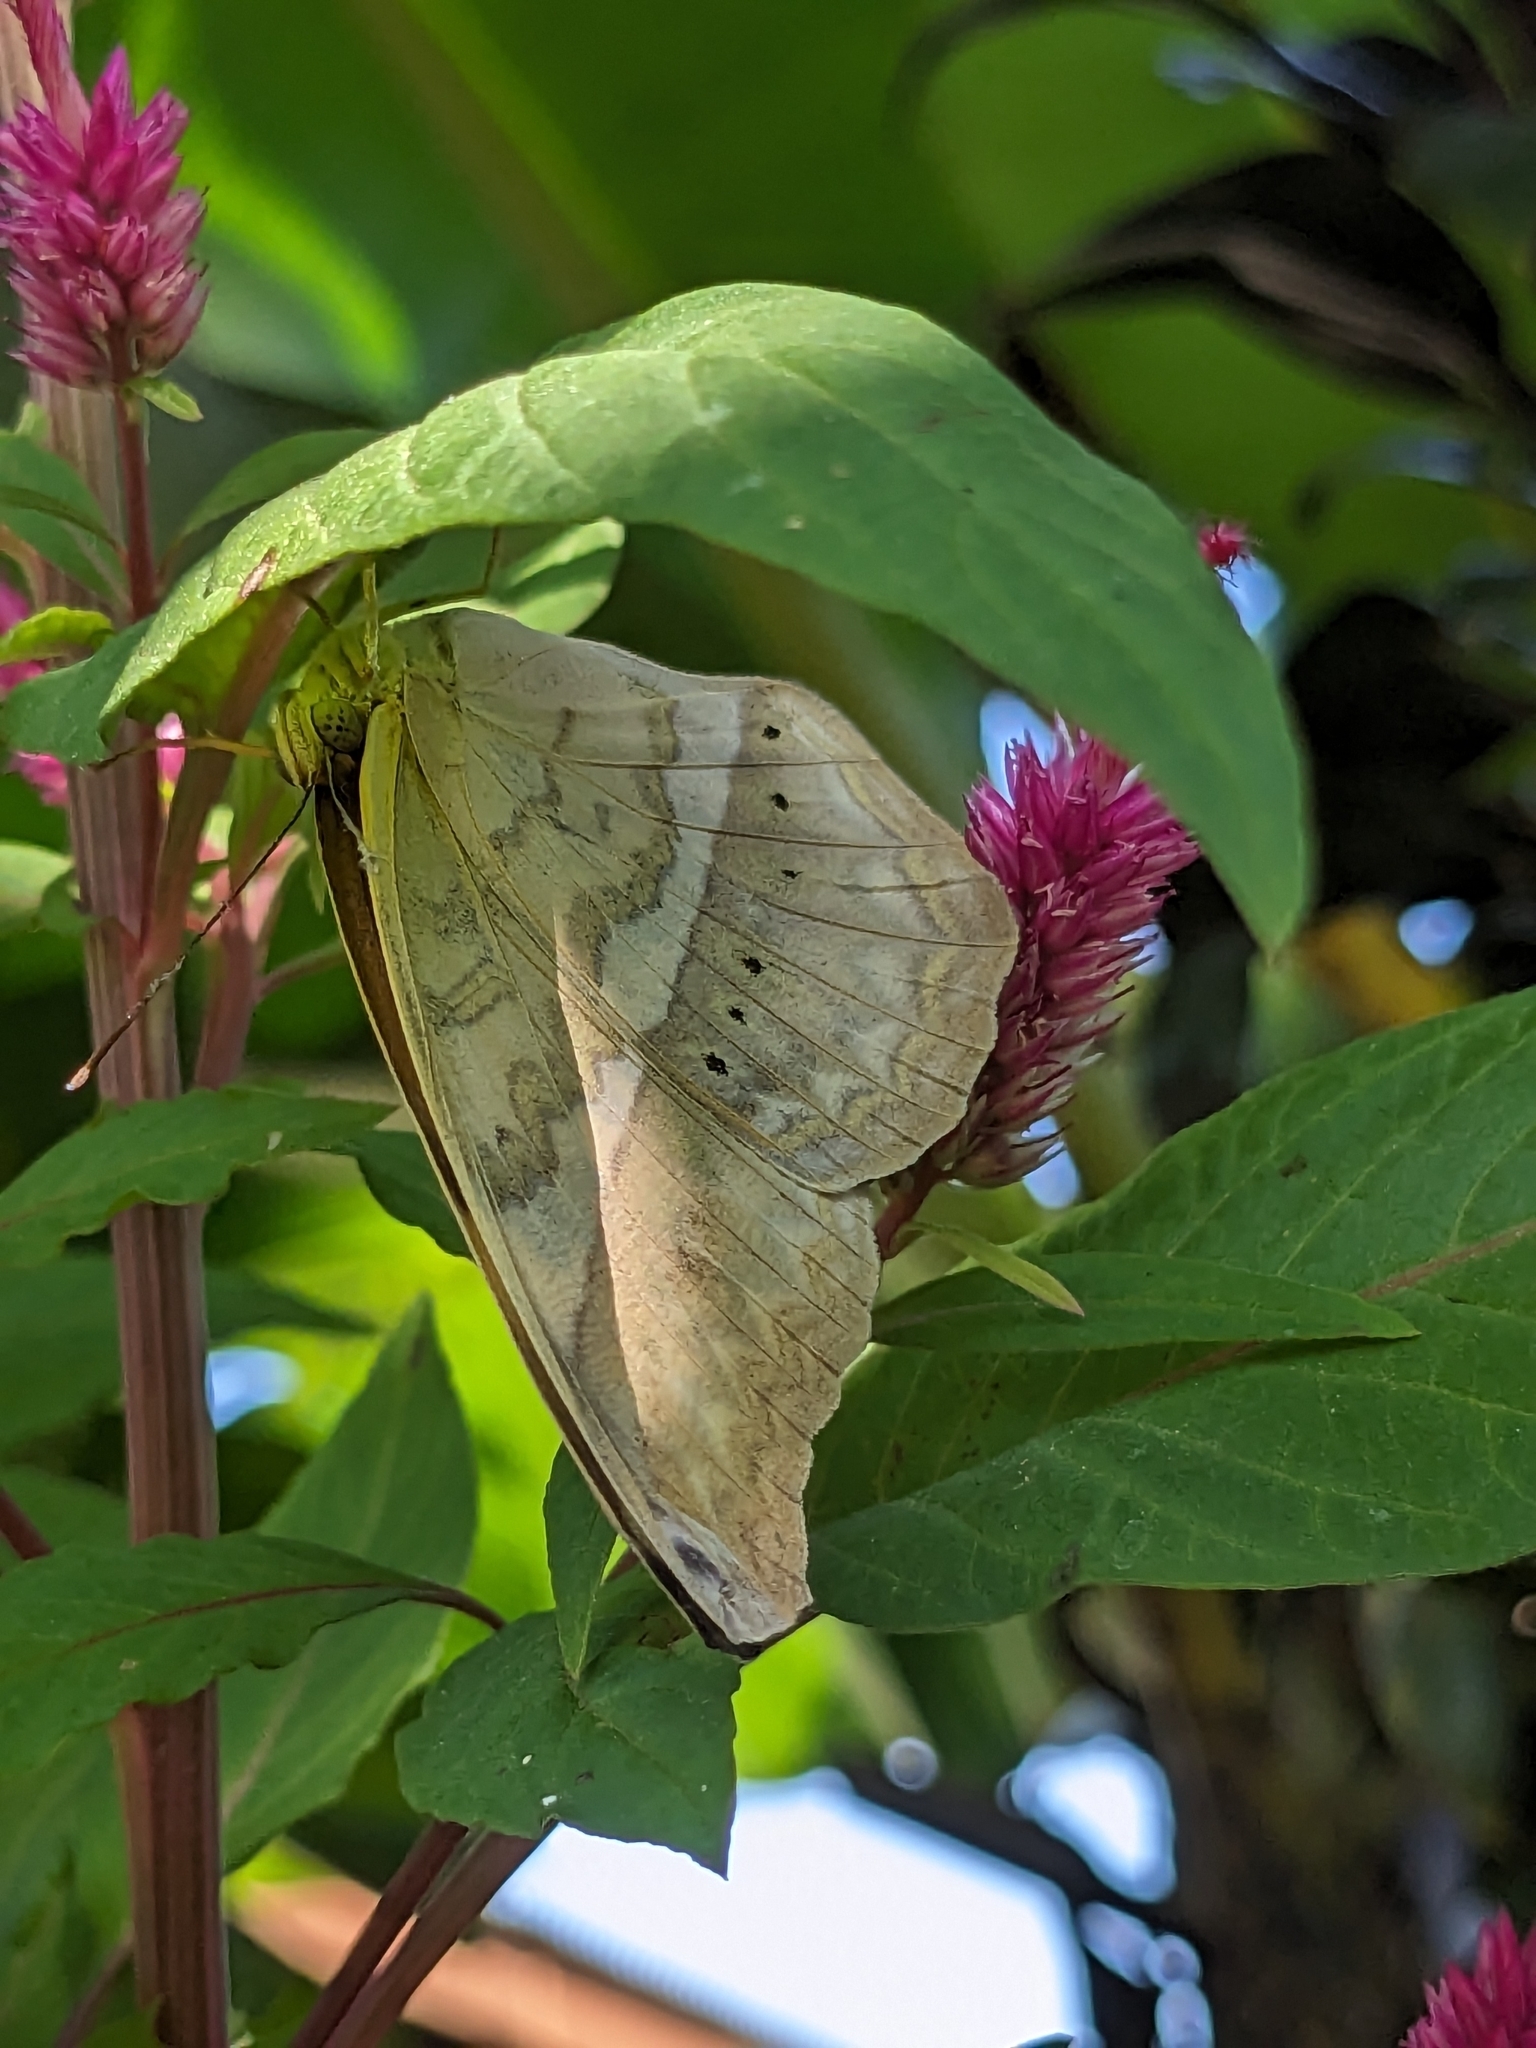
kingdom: Animalia
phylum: Arthropoda
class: Insecta
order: Lepidoptera
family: Nymphalidae
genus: Cirrochroa
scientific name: Cirrochroa aoris
